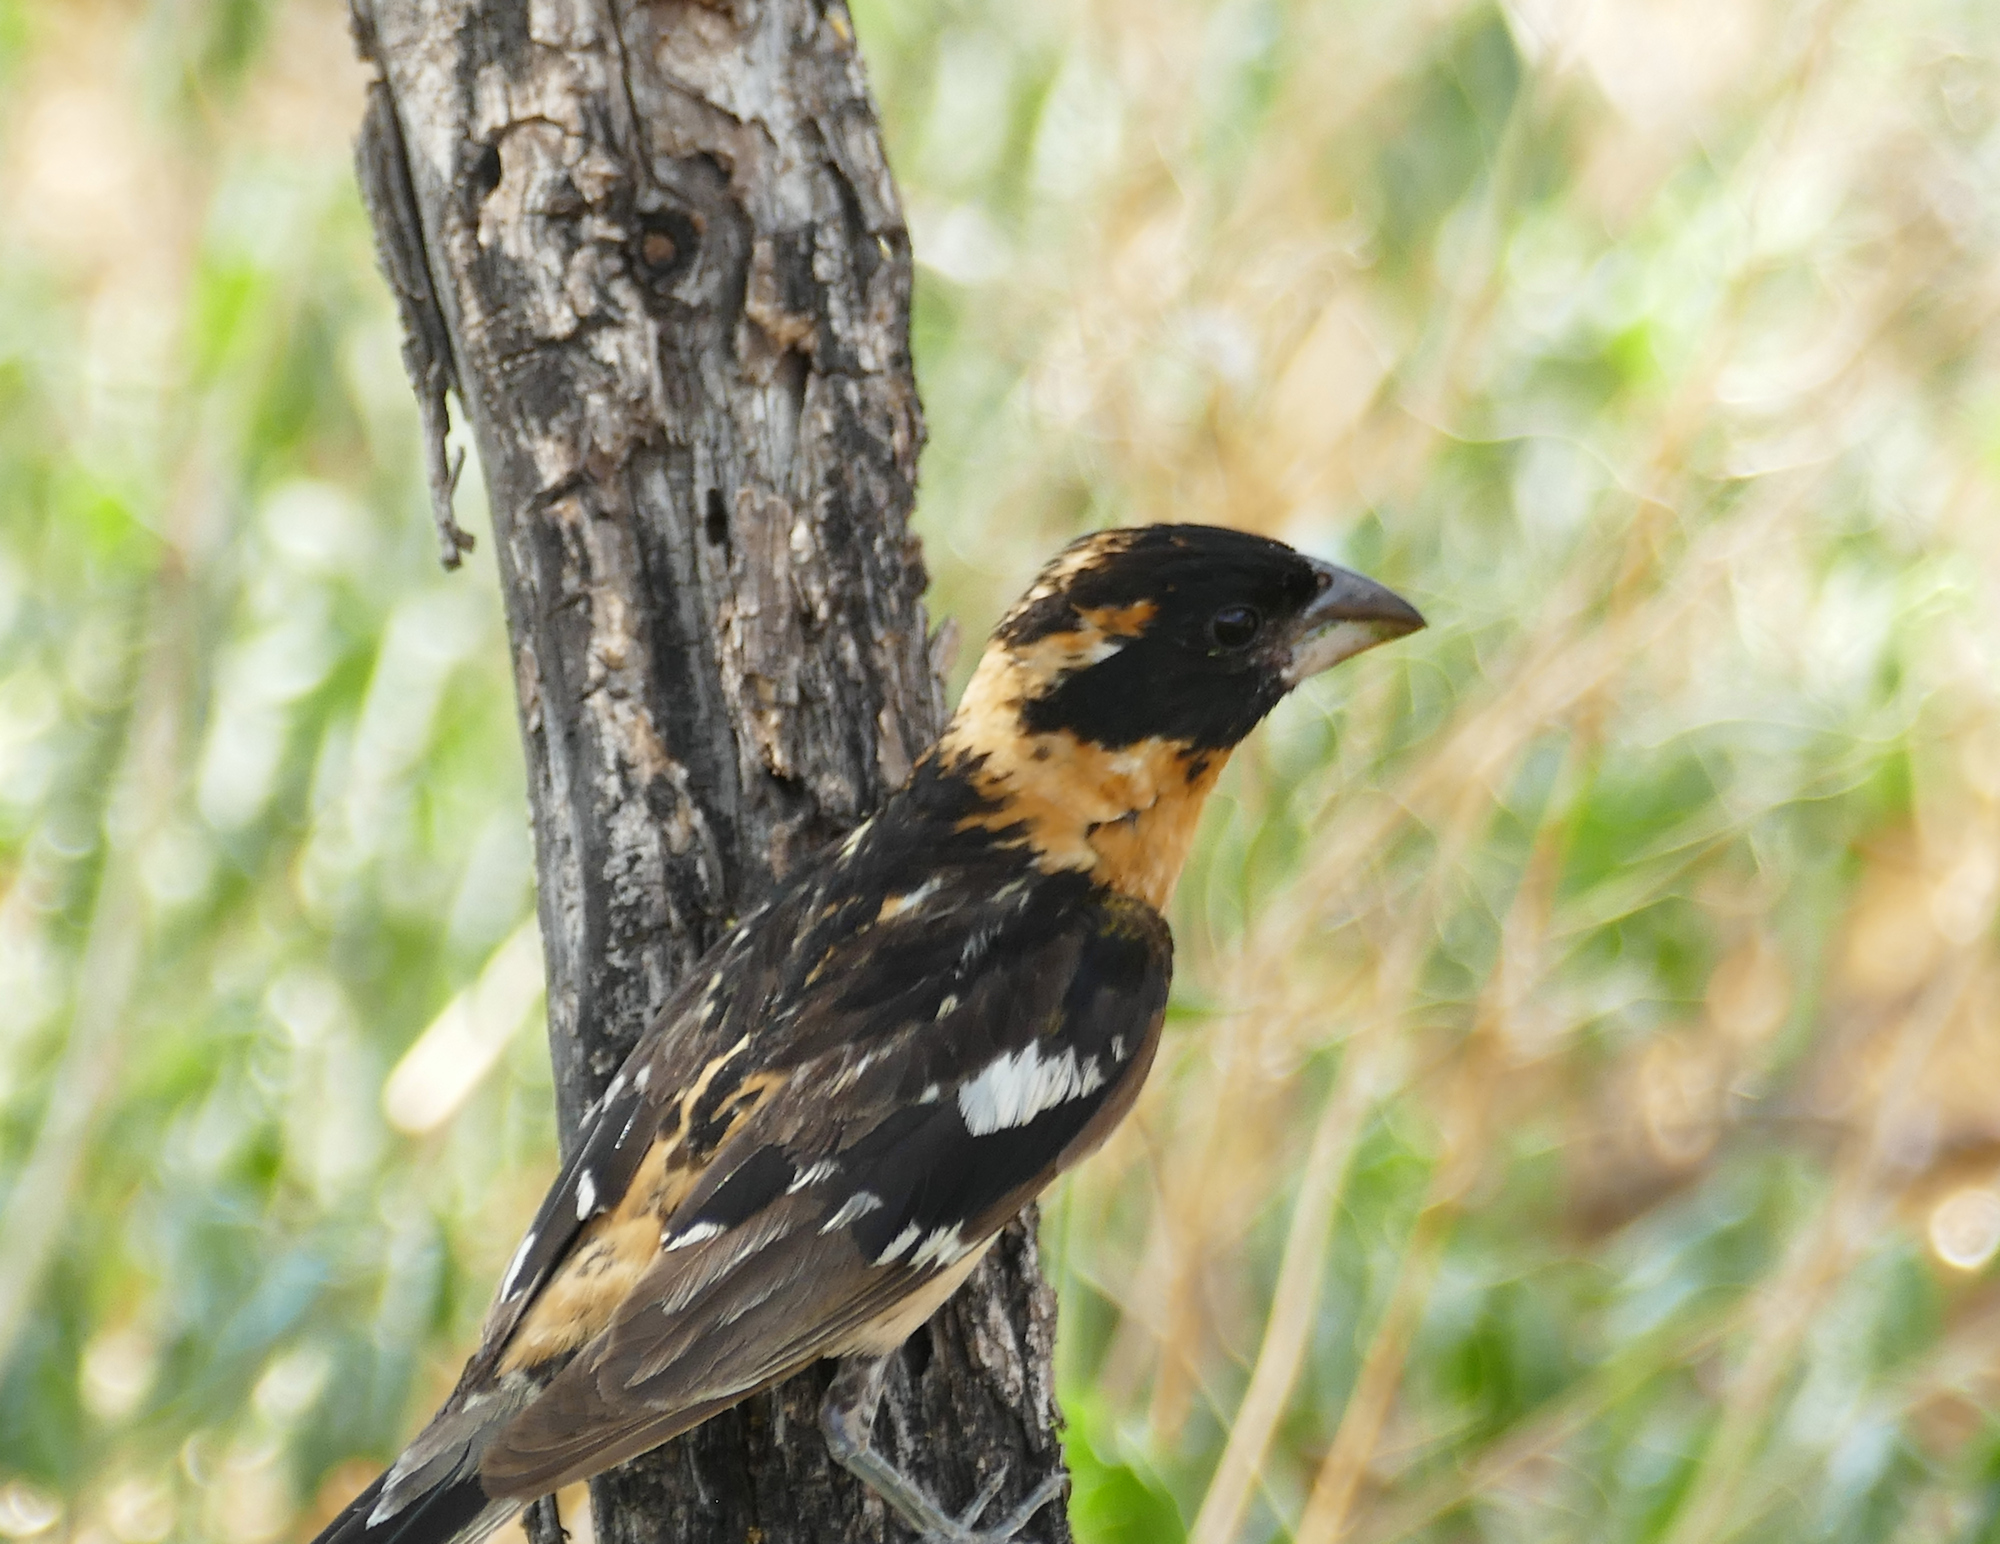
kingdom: Animalia
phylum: Chordata
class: Aves
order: Passeriformes
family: Cardinalidae
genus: Pheucticus
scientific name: Pheucticus melanocephalus
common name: Black-headed grosbeak
